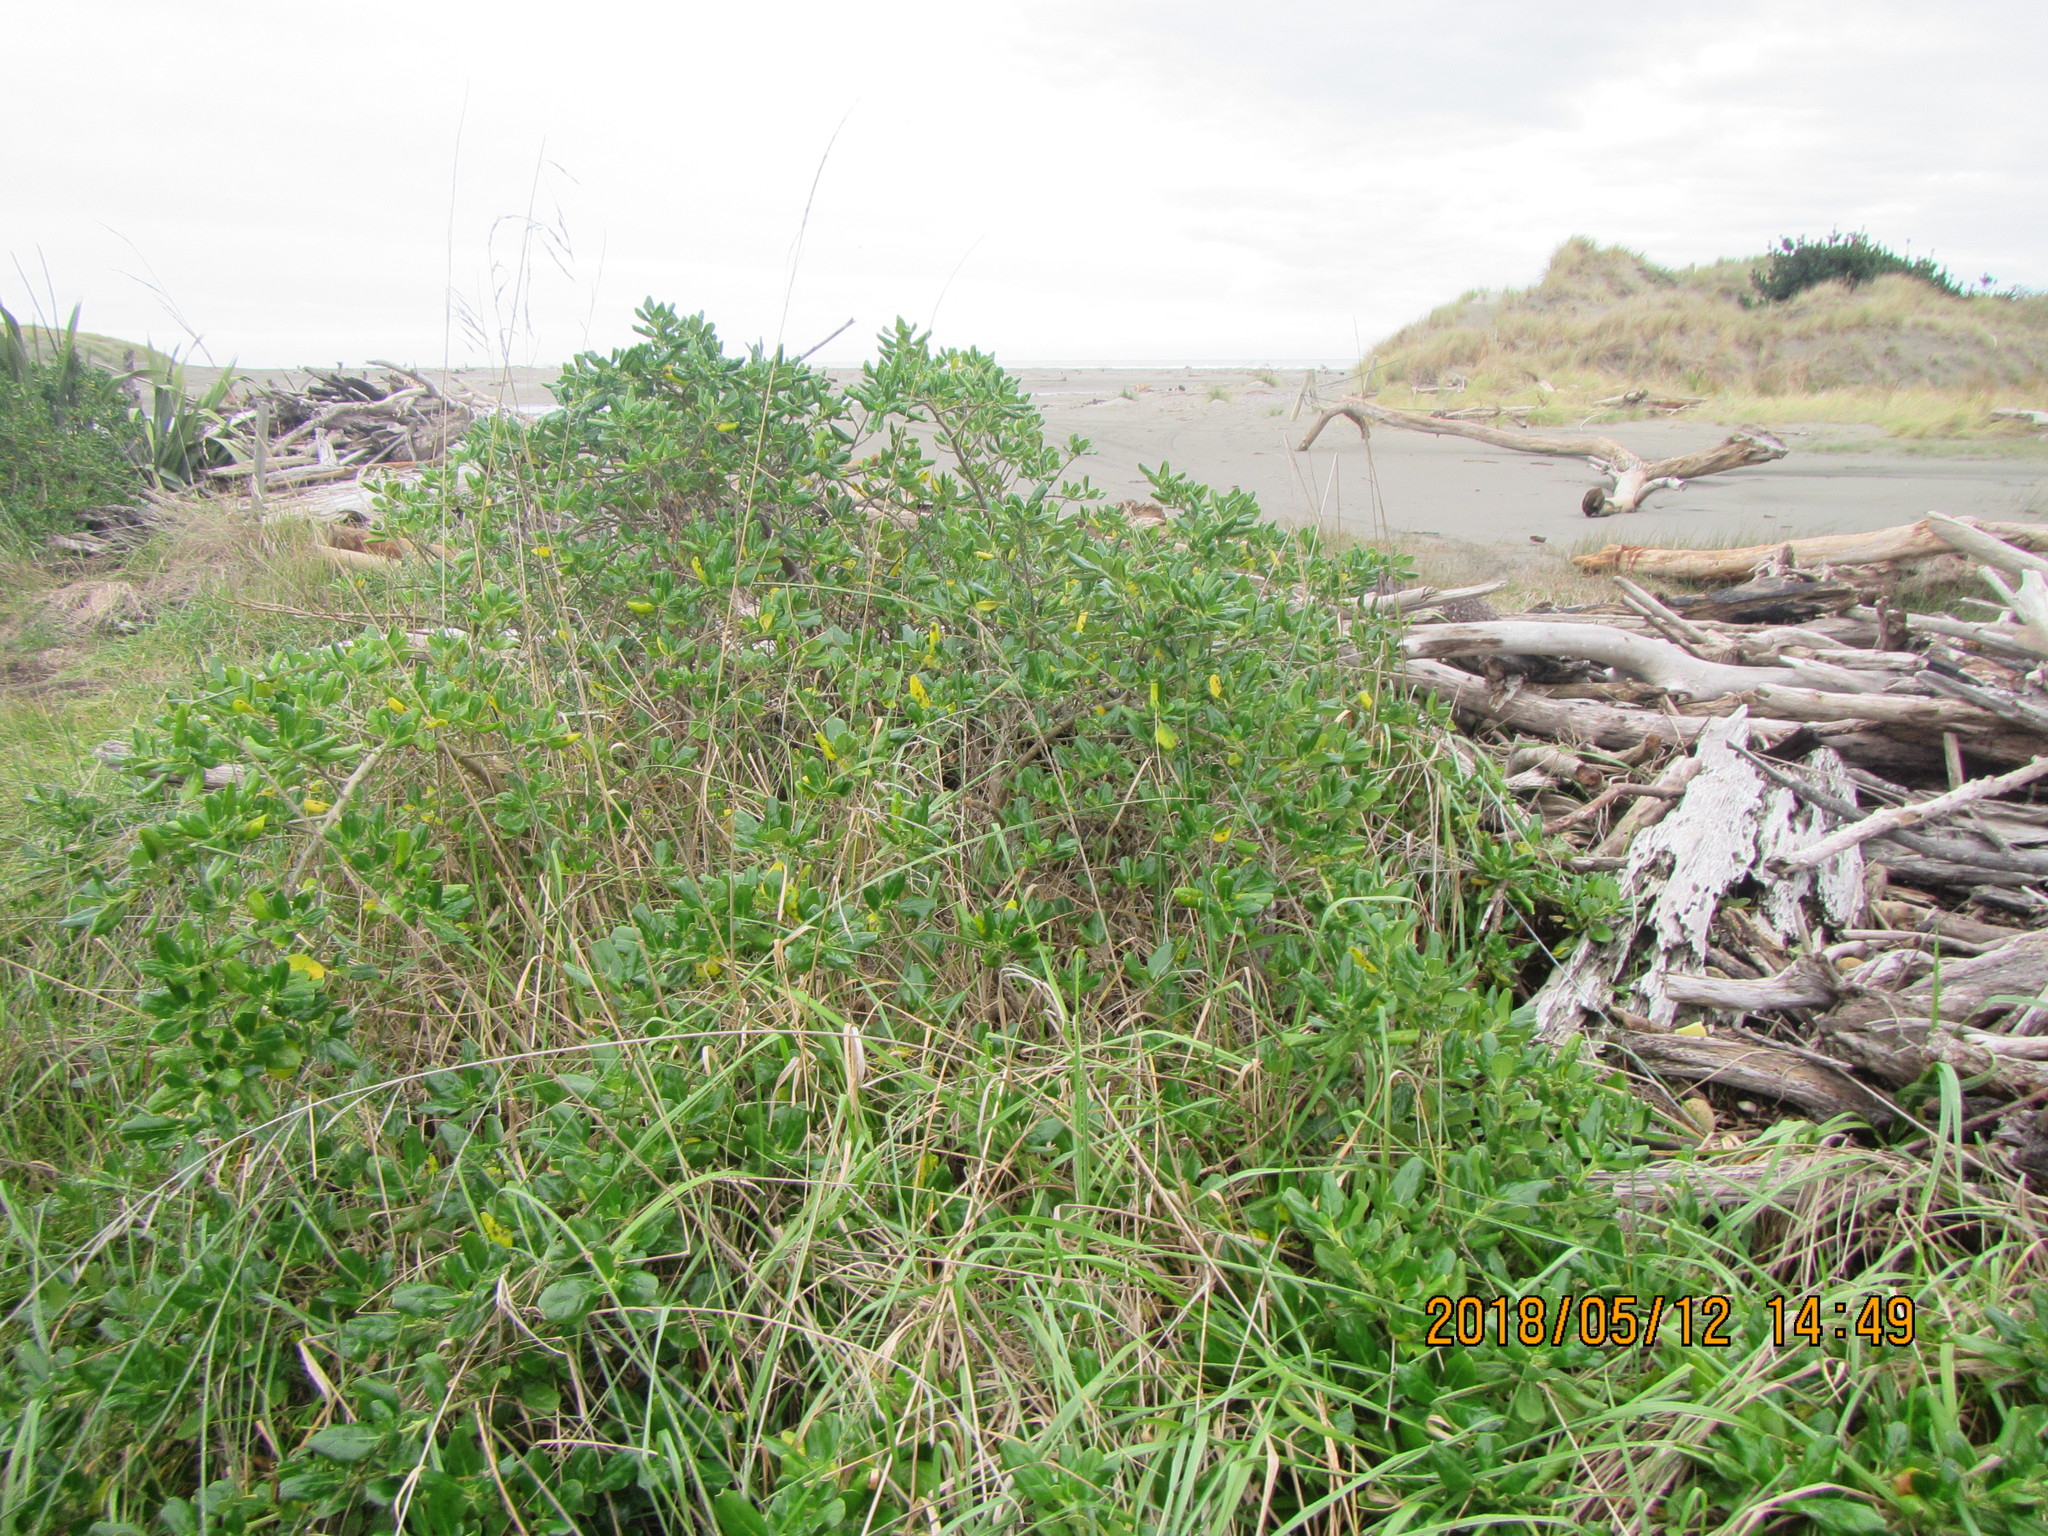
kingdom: Plantae
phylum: Tracheophyta
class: Magnoliopsida
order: Gentianales
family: Rubiaceae
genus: Coprosma
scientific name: Coprosma repens
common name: Tree bedstraw
